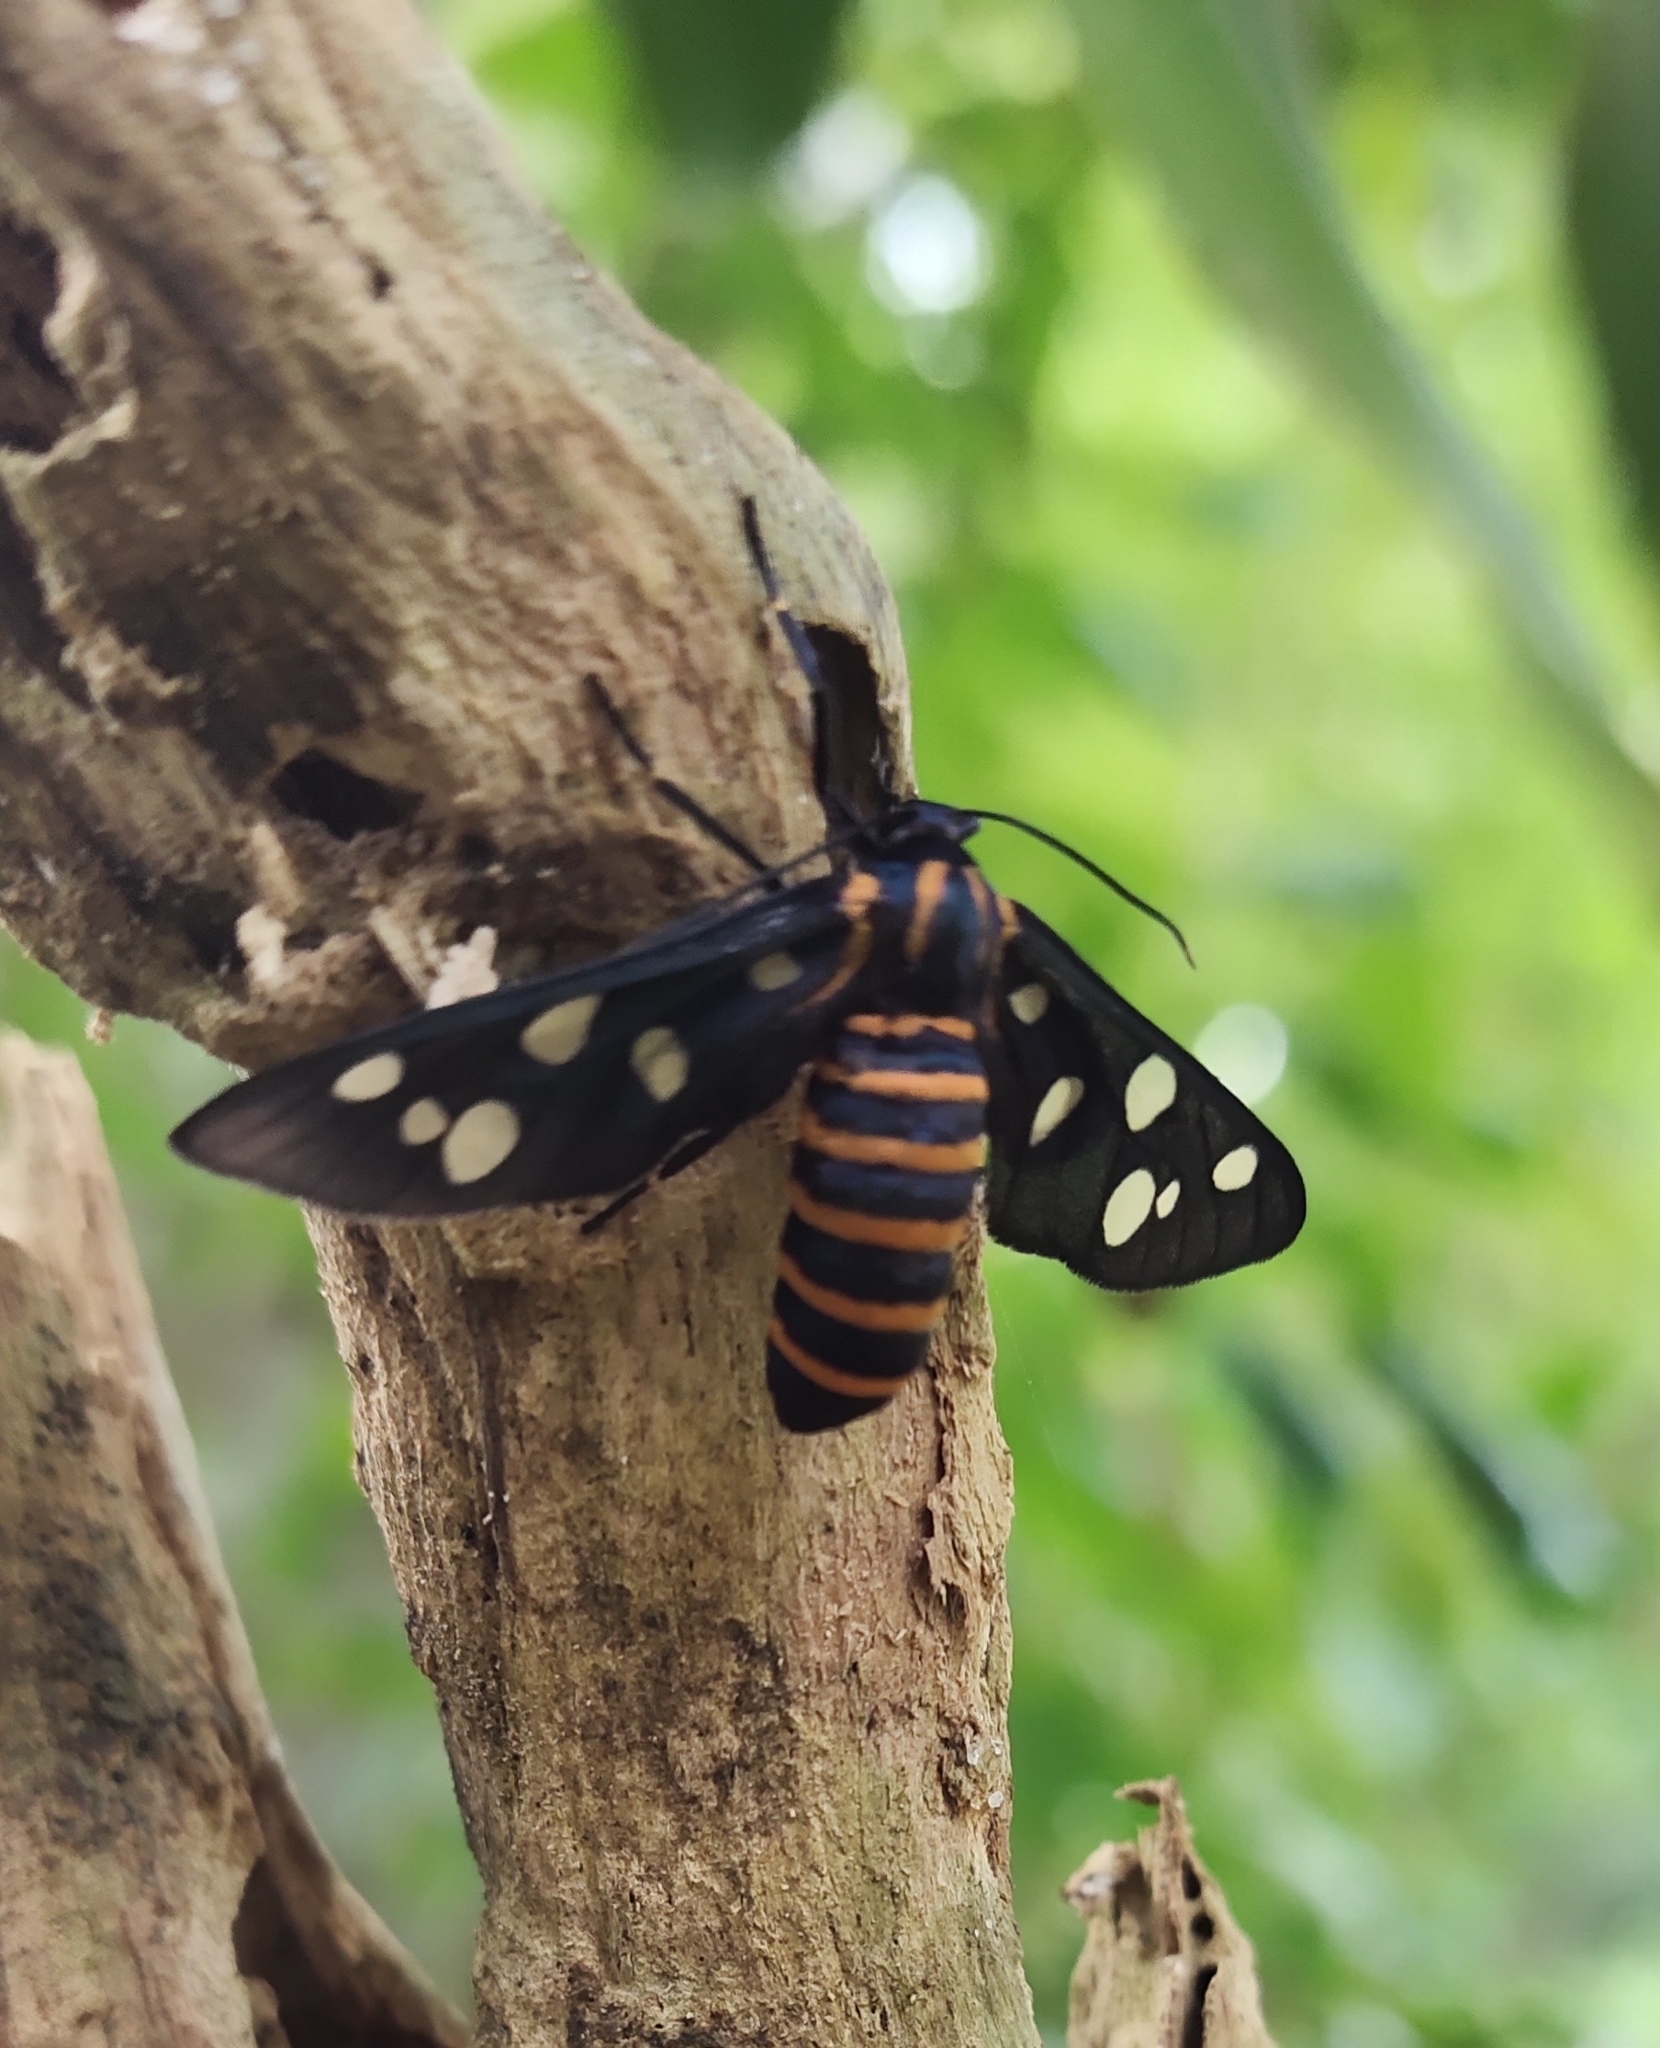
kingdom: Animalia
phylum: Arthropoda
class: Insecta
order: Lepidoptera
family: Erebidae
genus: Amata
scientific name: Amata passalis
